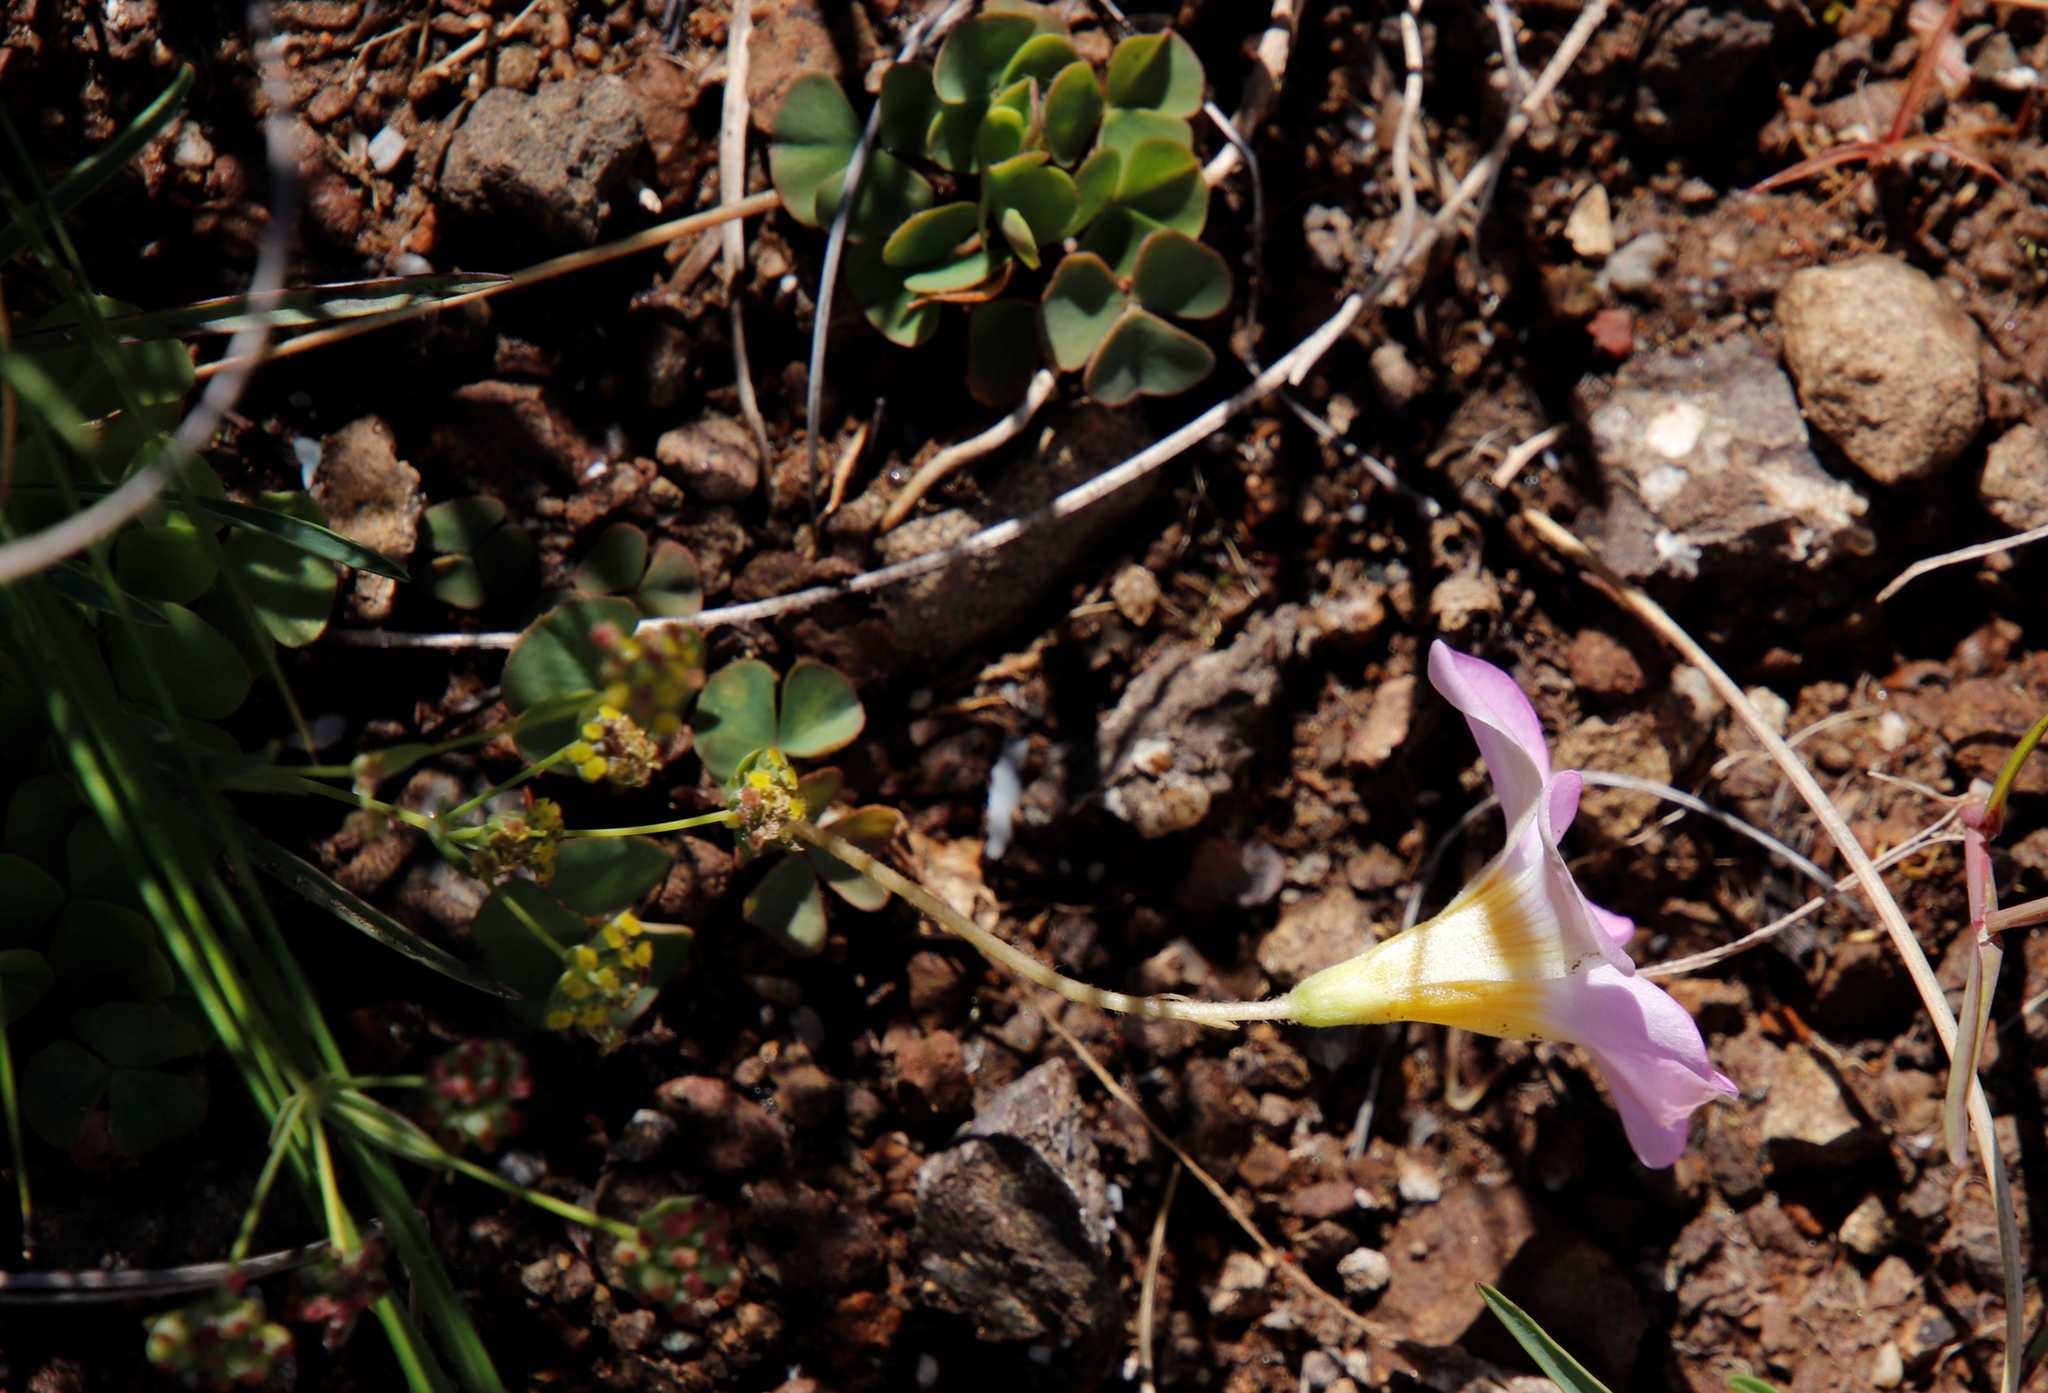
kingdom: Plantae
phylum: Tracheophyta
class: Magnoliopsida
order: Oxalidales
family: Oxalidaceae
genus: Oxalis
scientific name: Oxalis obliquifolia
